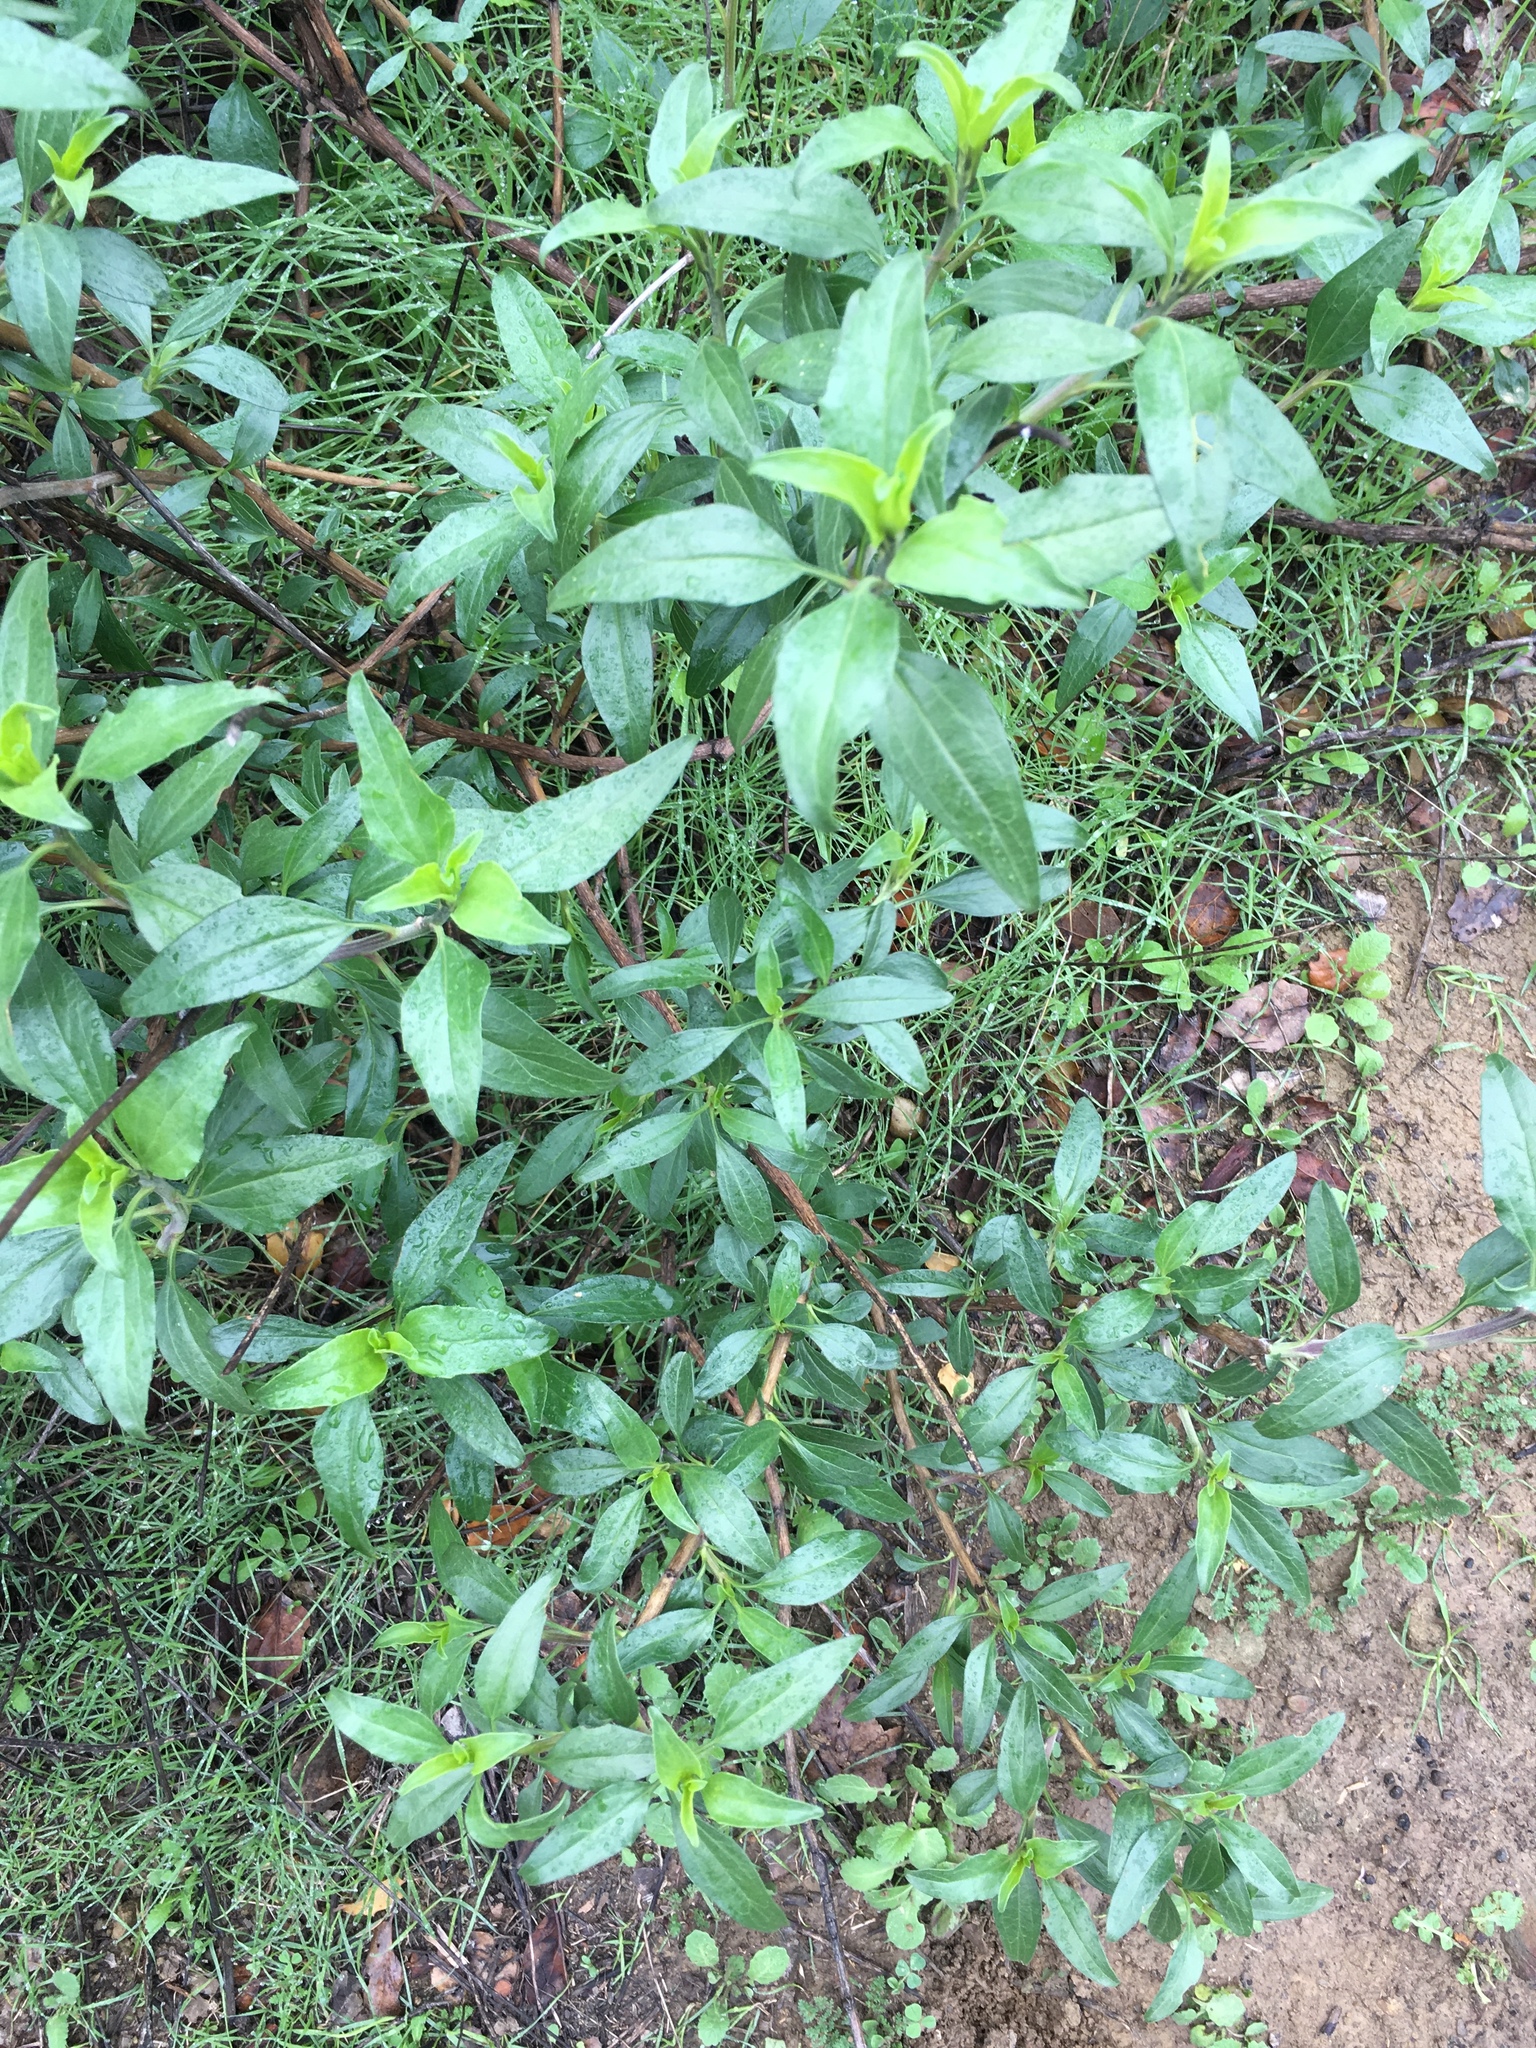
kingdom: Plantae
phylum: Tracheophyta
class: Magnoliopsida
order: Asterales
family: Asteraceae
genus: Encelia
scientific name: Encelia californica
